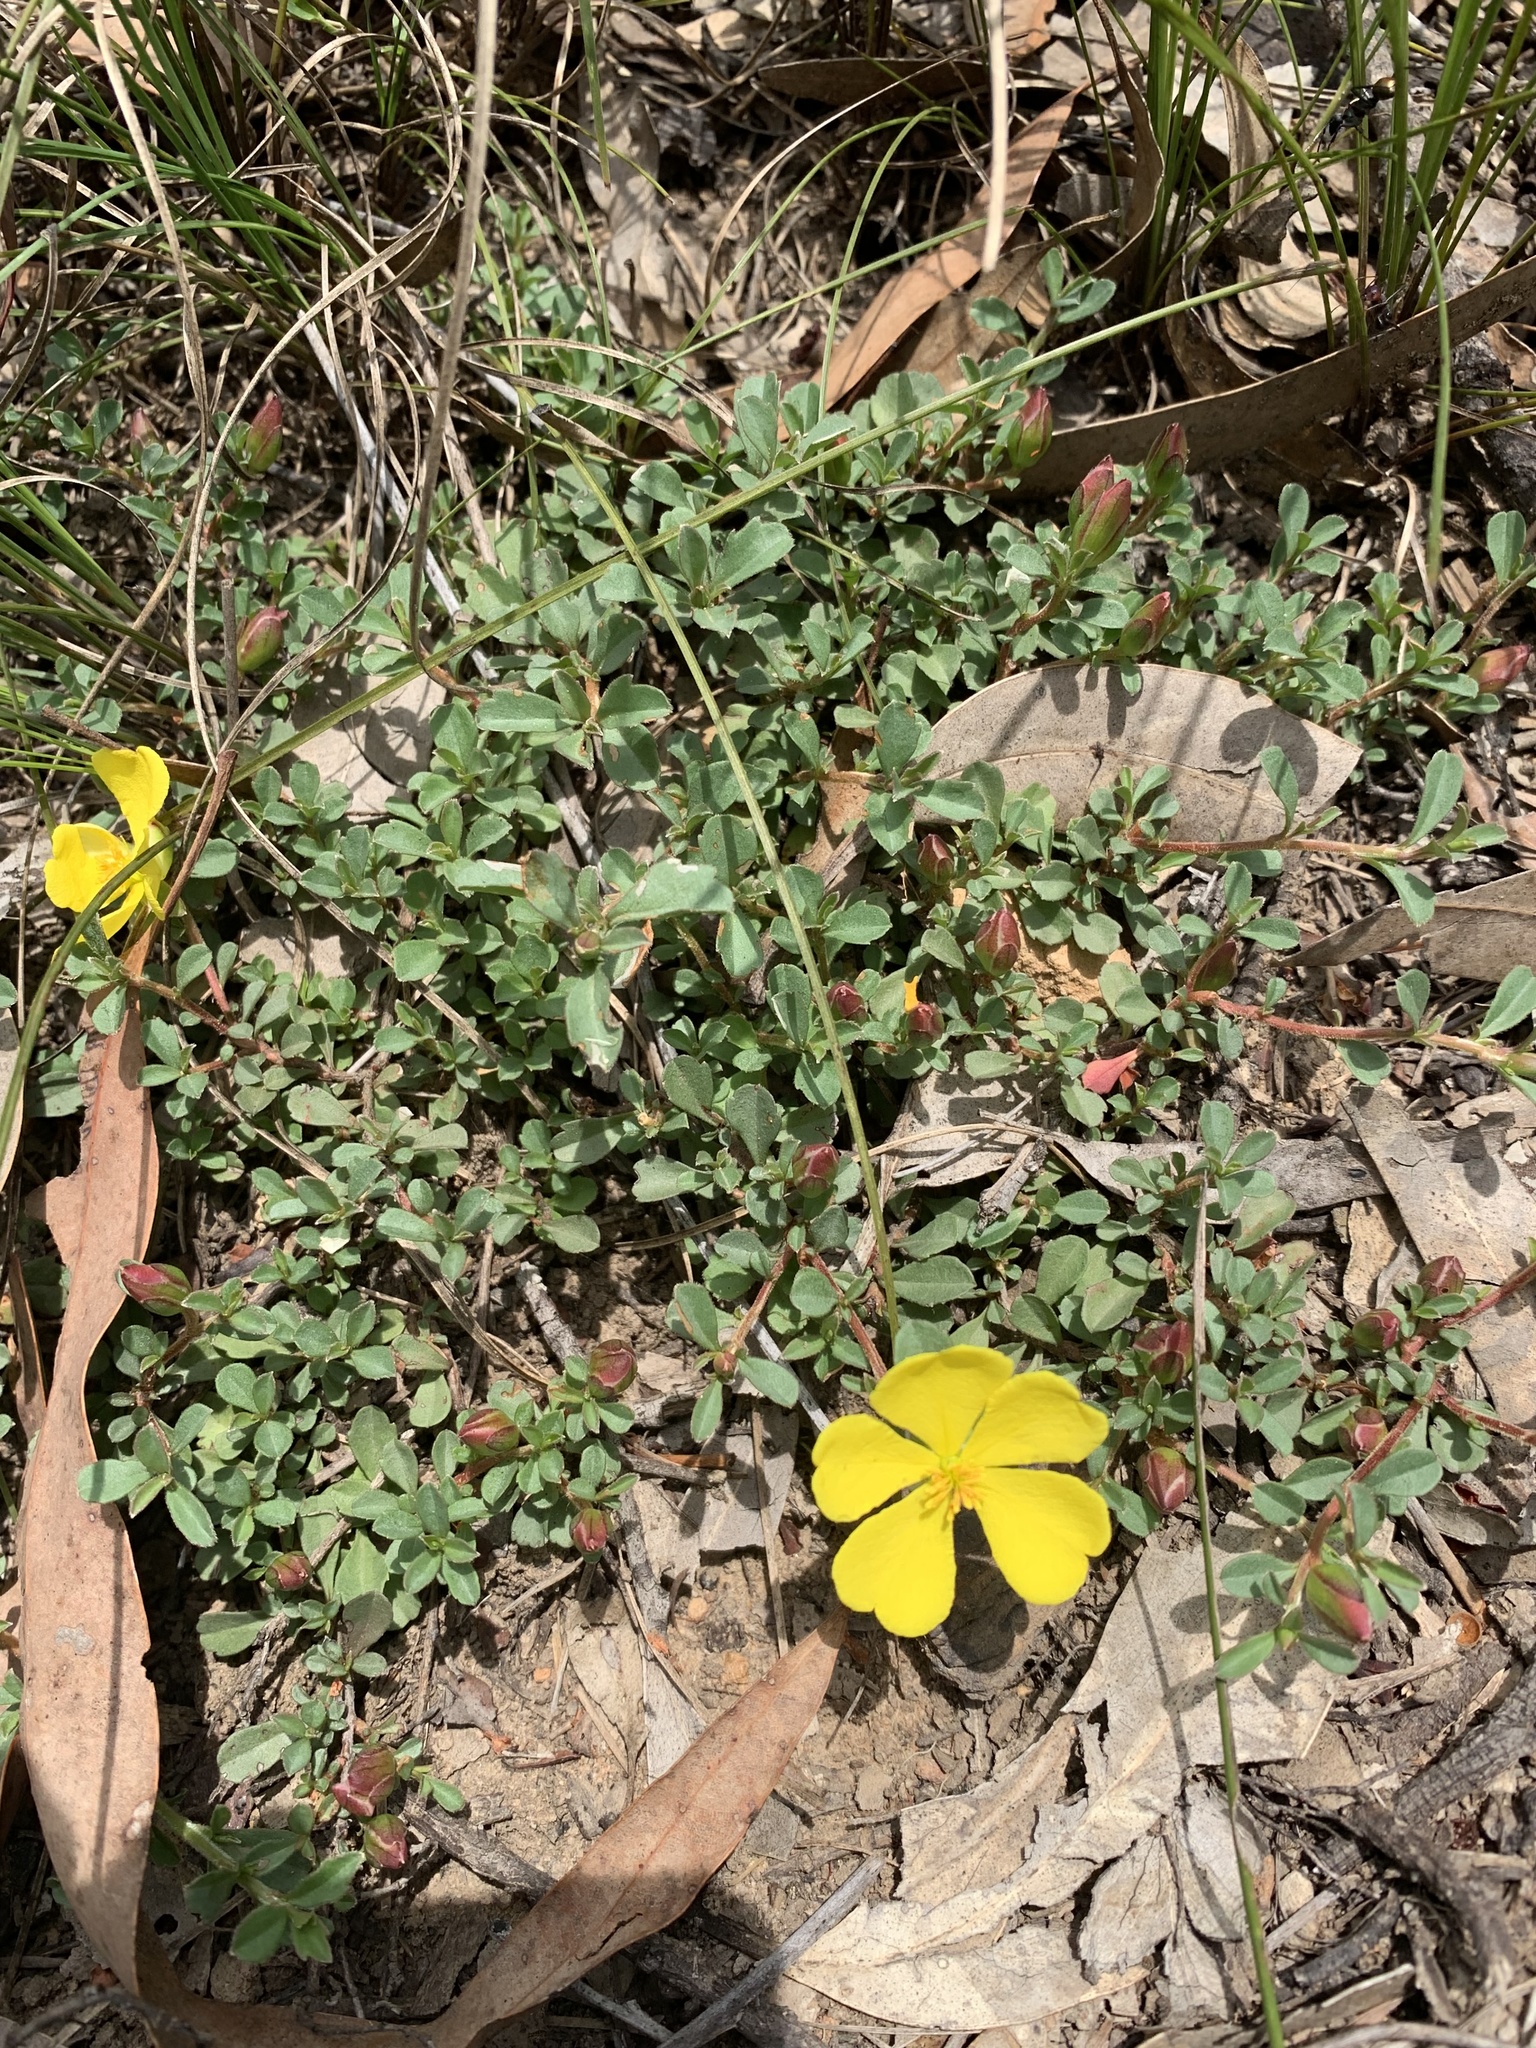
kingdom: Plantae
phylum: Tracheophyta
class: Magnoliopsida
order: Dilleniales
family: Dilleniaceae
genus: Hibbertia
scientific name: Hibbertia diffusa
